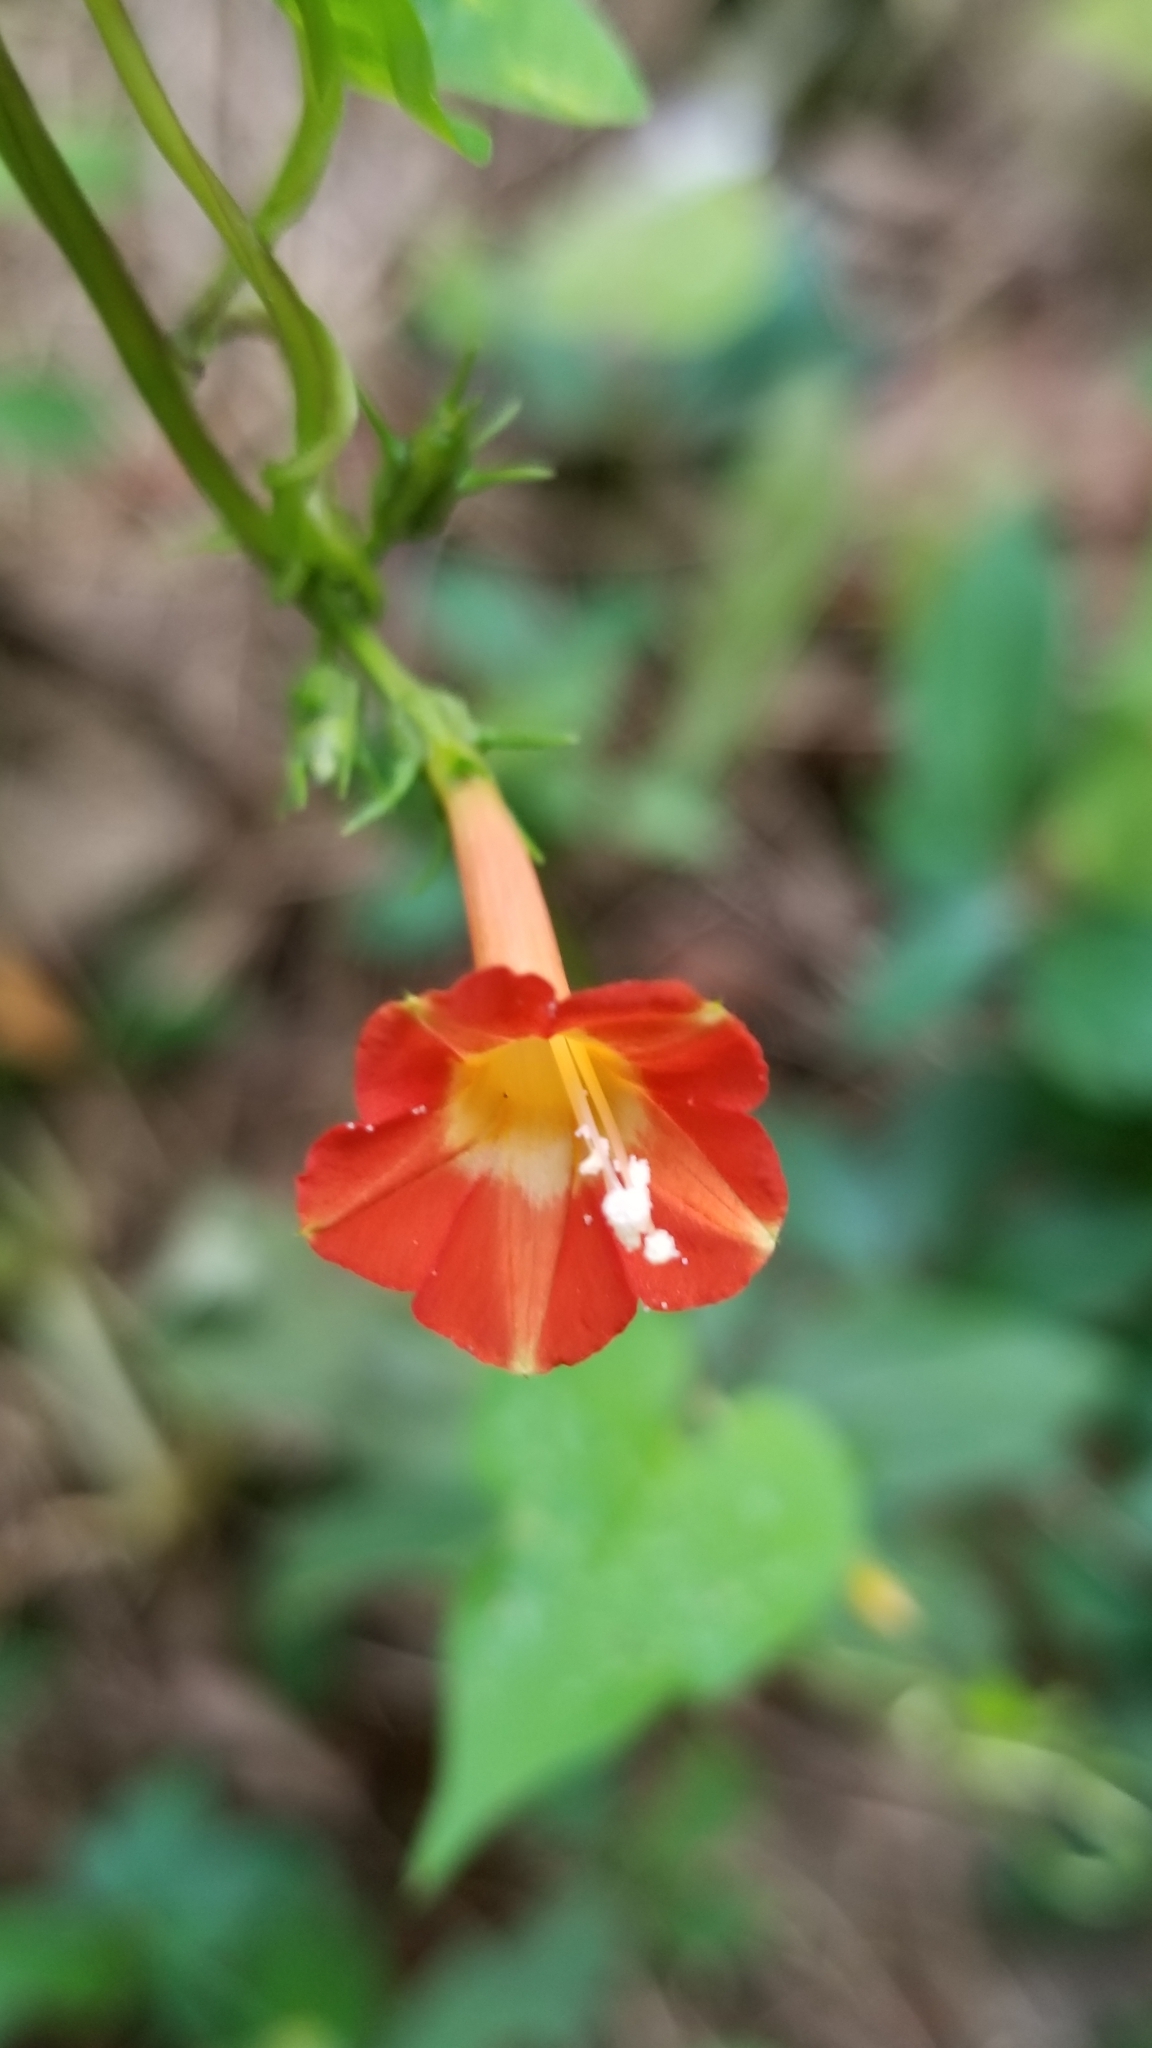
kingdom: Plantae
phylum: Tracheophyta
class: Magnoliopsida
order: Solanales
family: Convolvulaceae
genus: Ipomoea
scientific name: Ipomoea coccinea
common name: Red morning-glory
